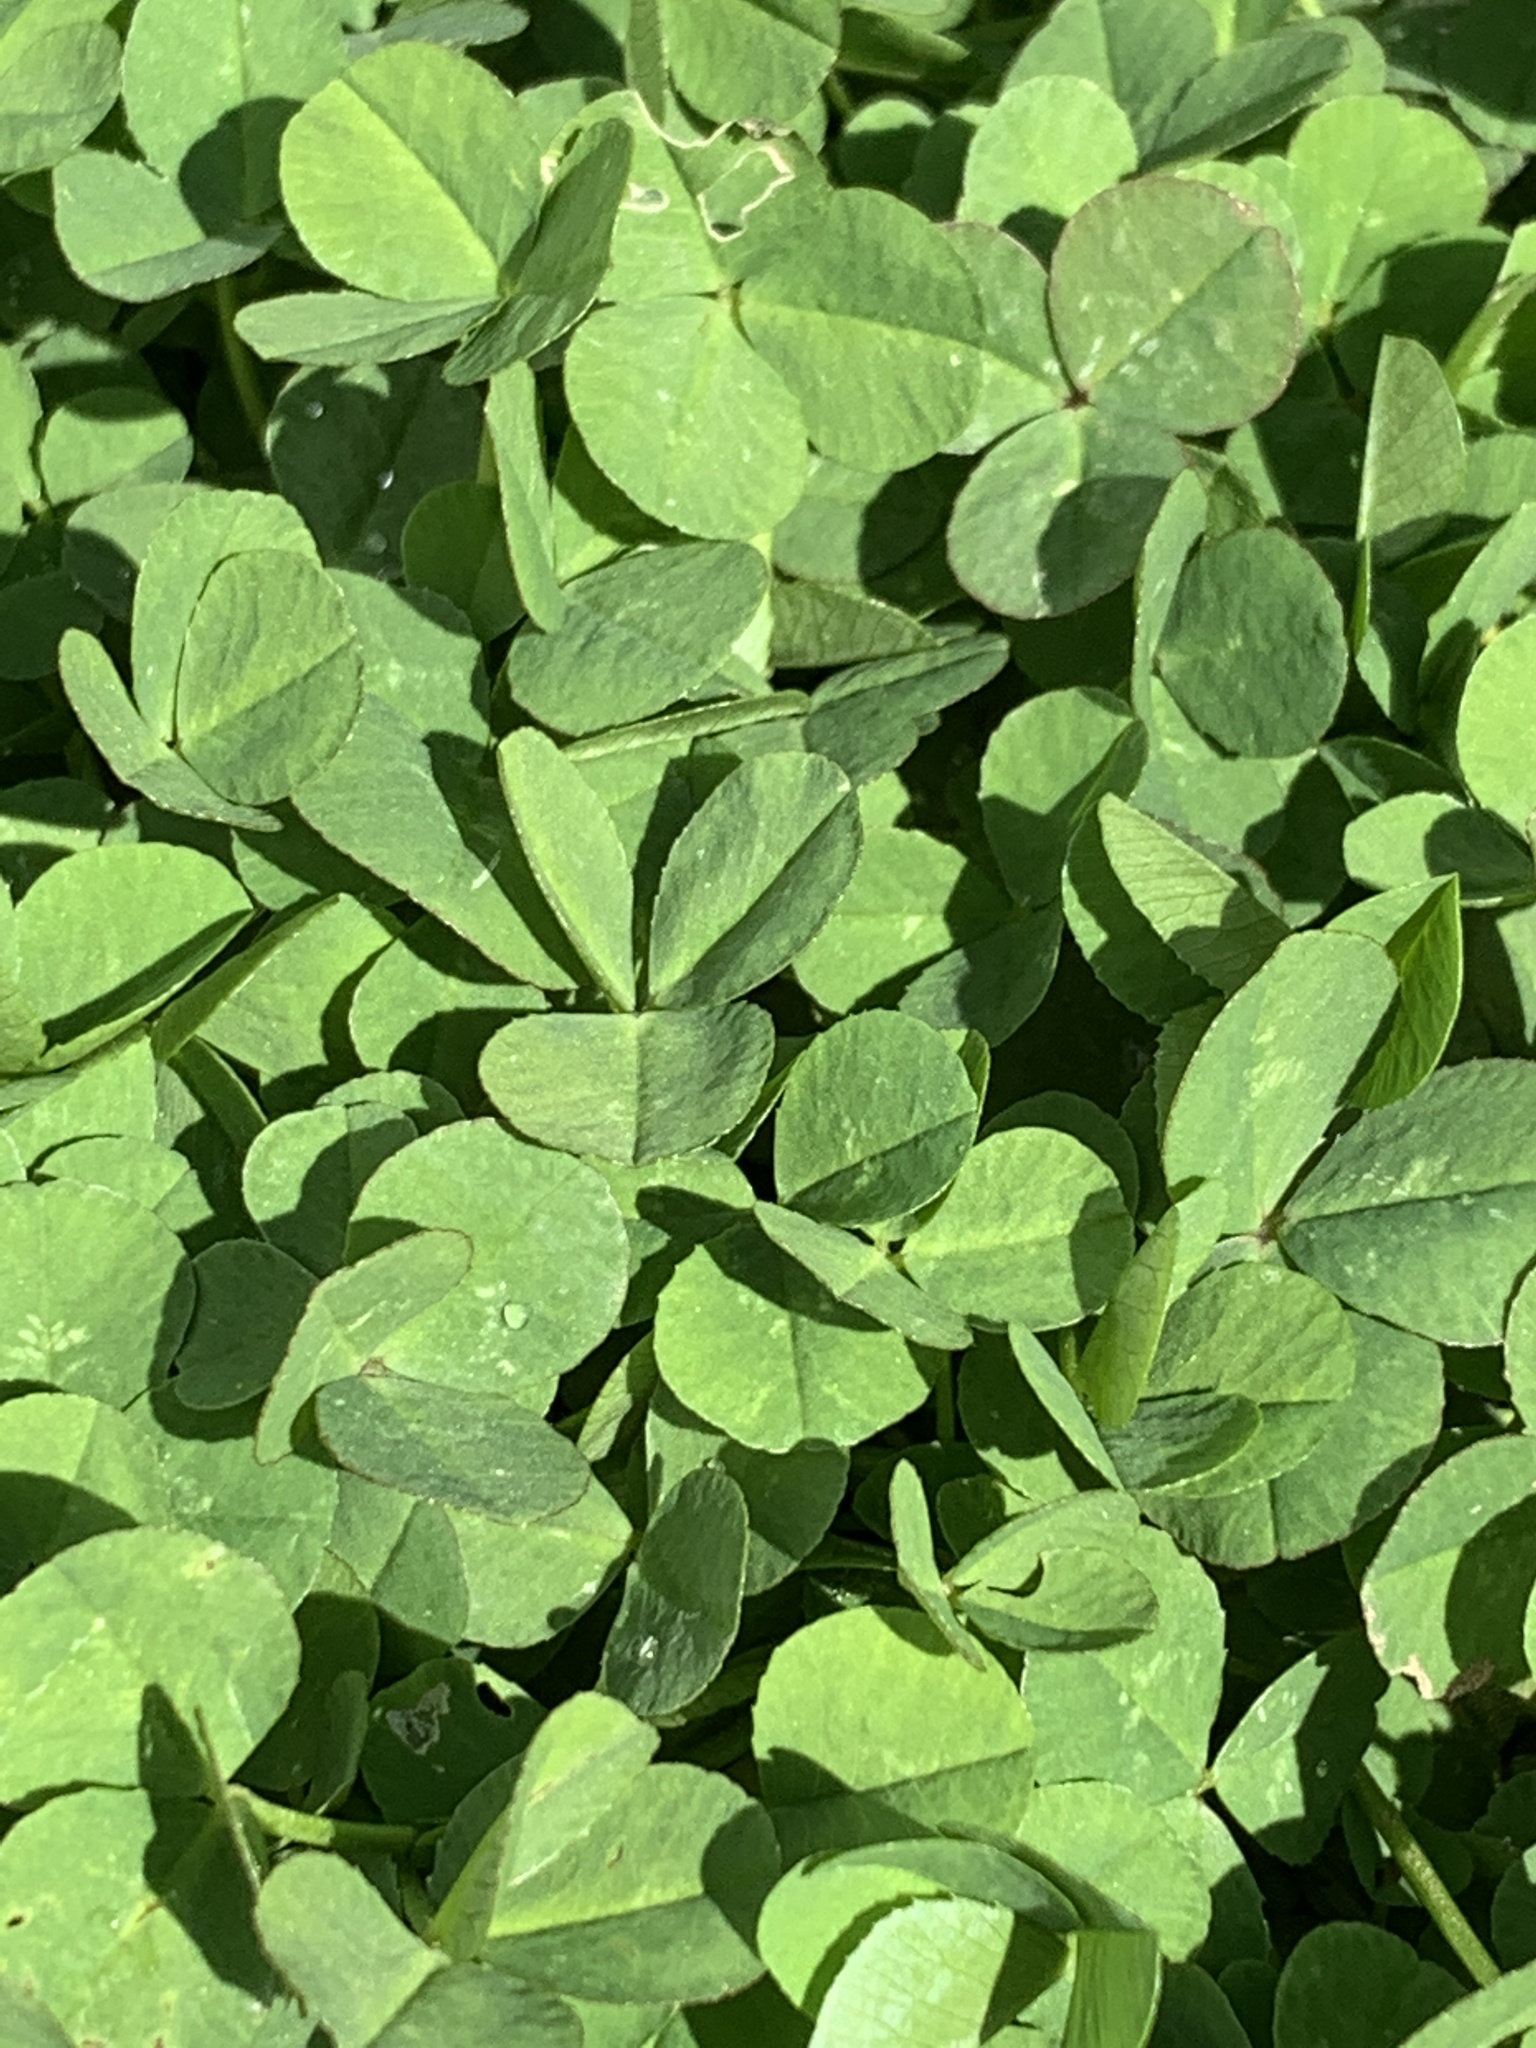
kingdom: Plantae
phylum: Tracheophyta
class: Magnoliopsida
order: Fabales
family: Fabaceae
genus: Trifolium
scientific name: Trifolium repens
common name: White clover
